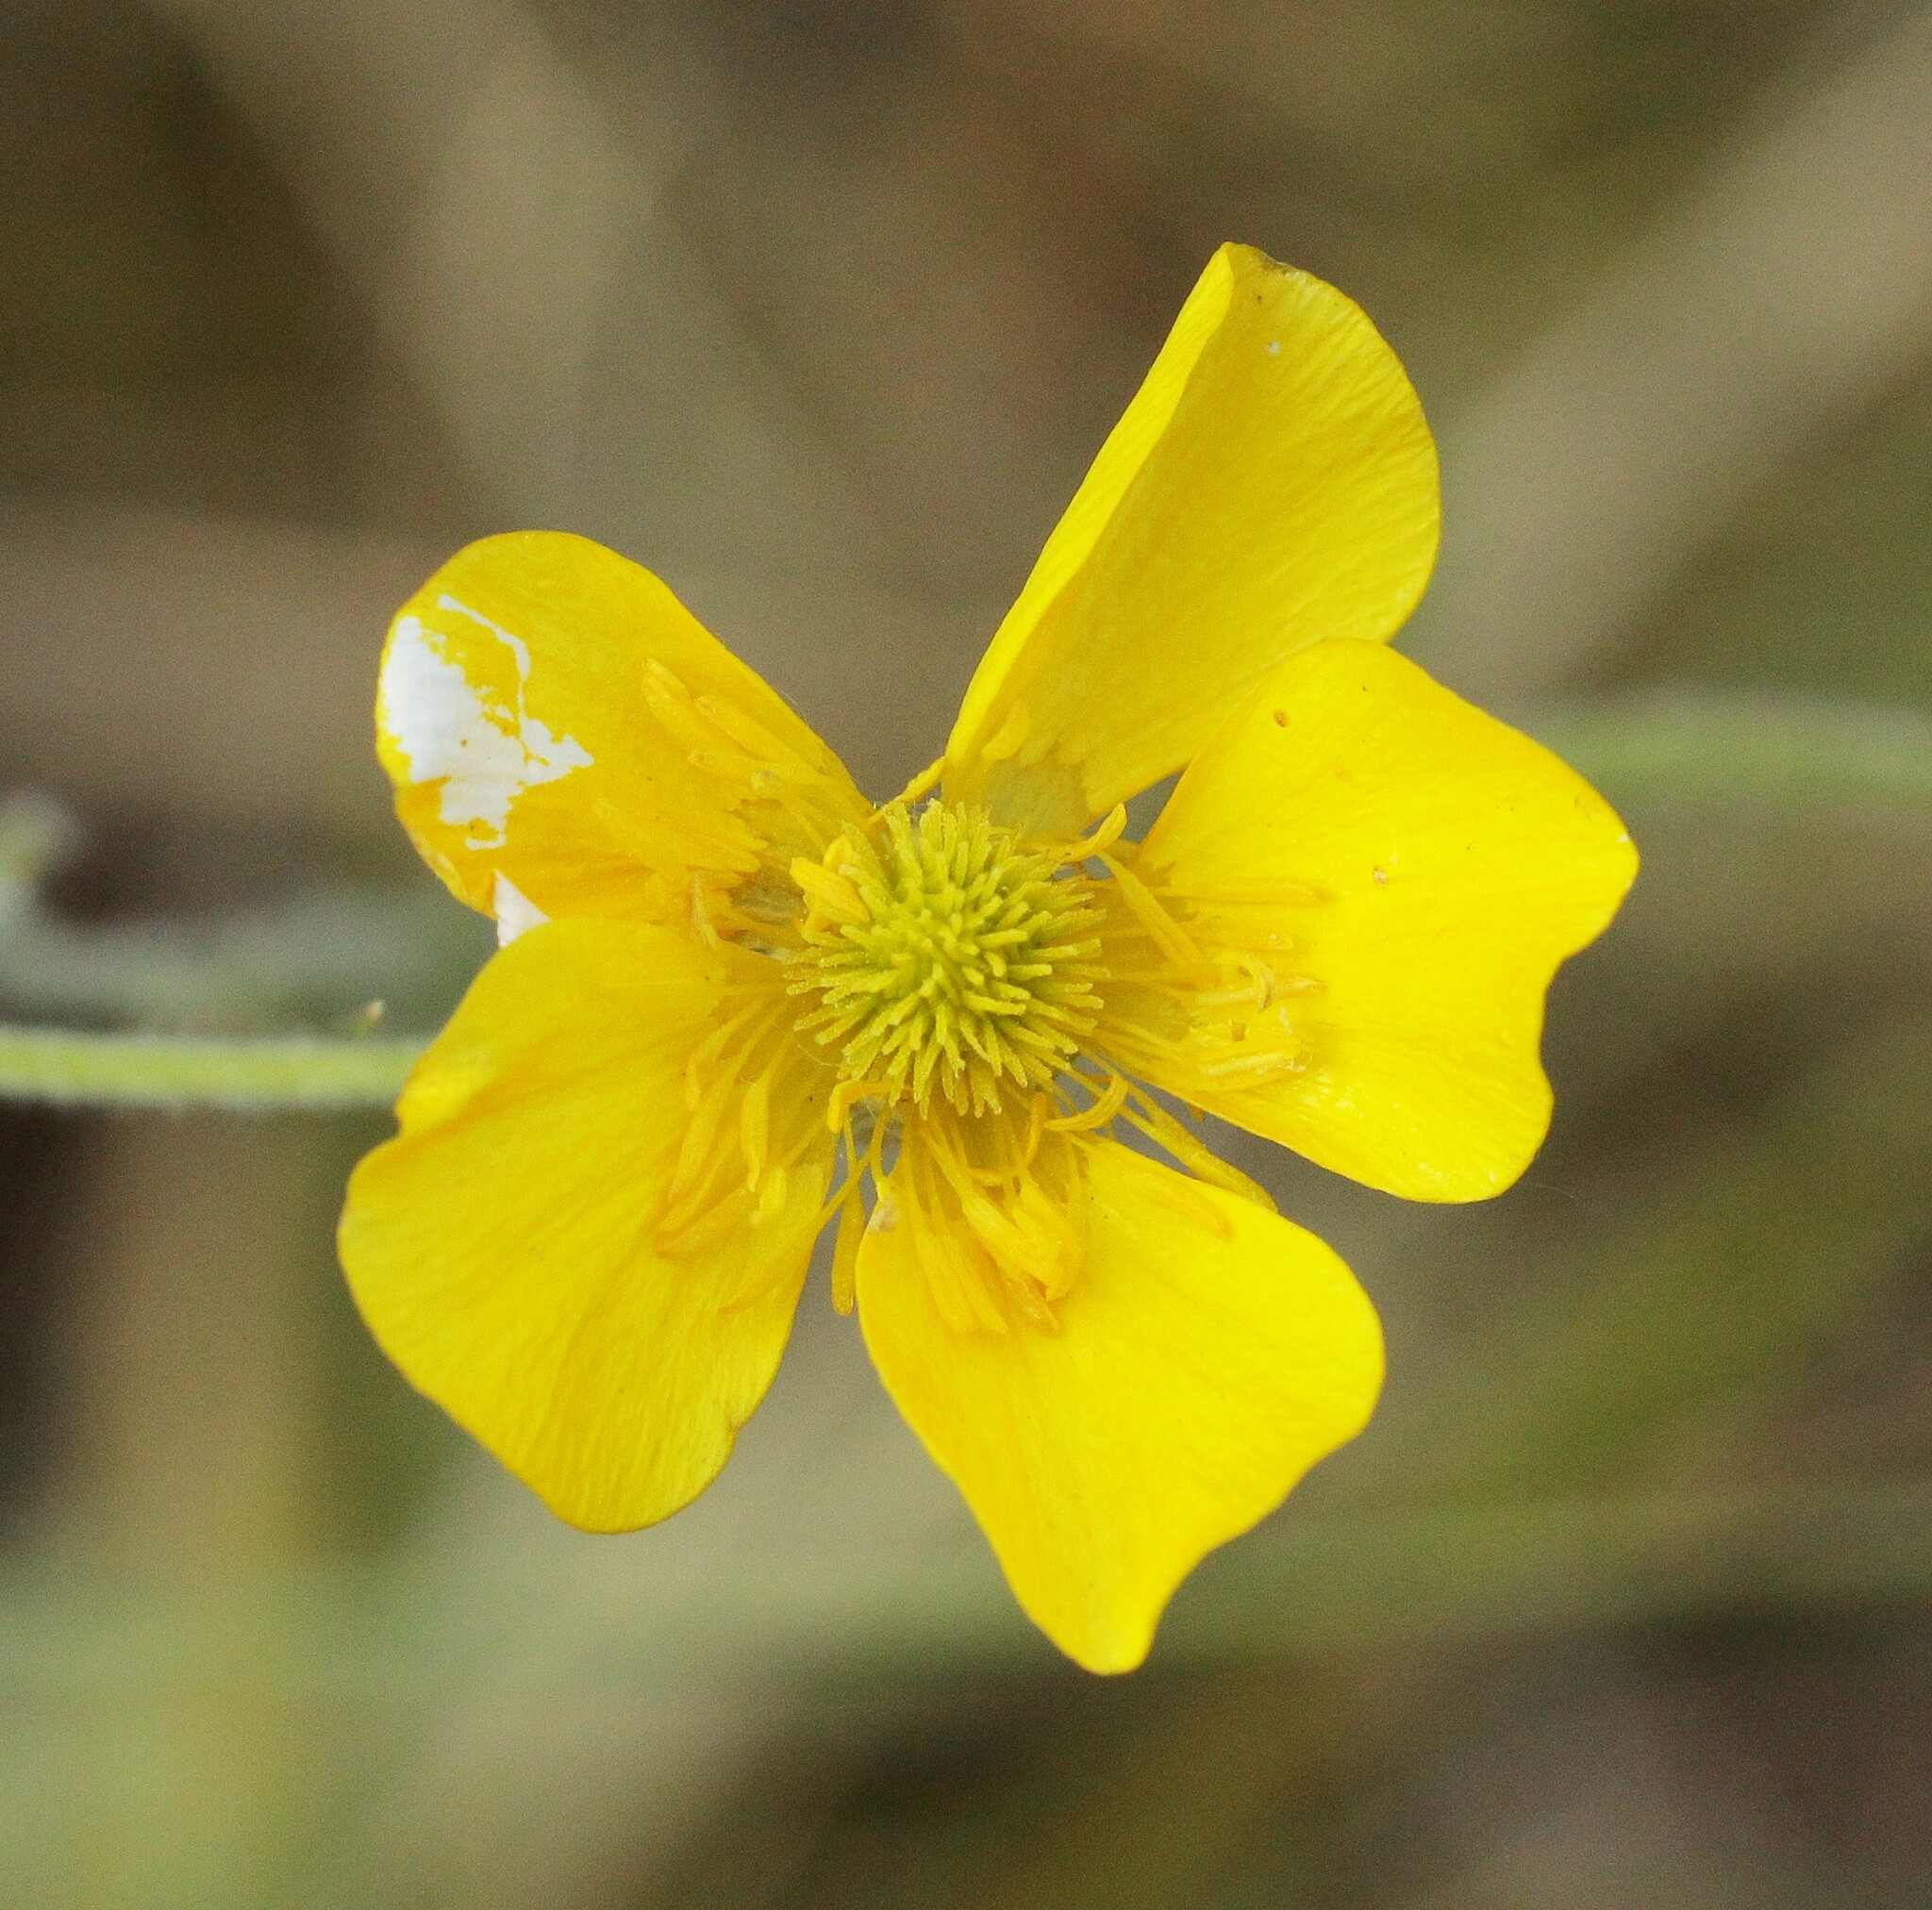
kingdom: Plantae
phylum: Tracheophyta
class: Magnoliopsida
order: Ranunculales
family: Ranunculaceae
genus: Ranunculus
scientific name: Ranunculus illyricus
